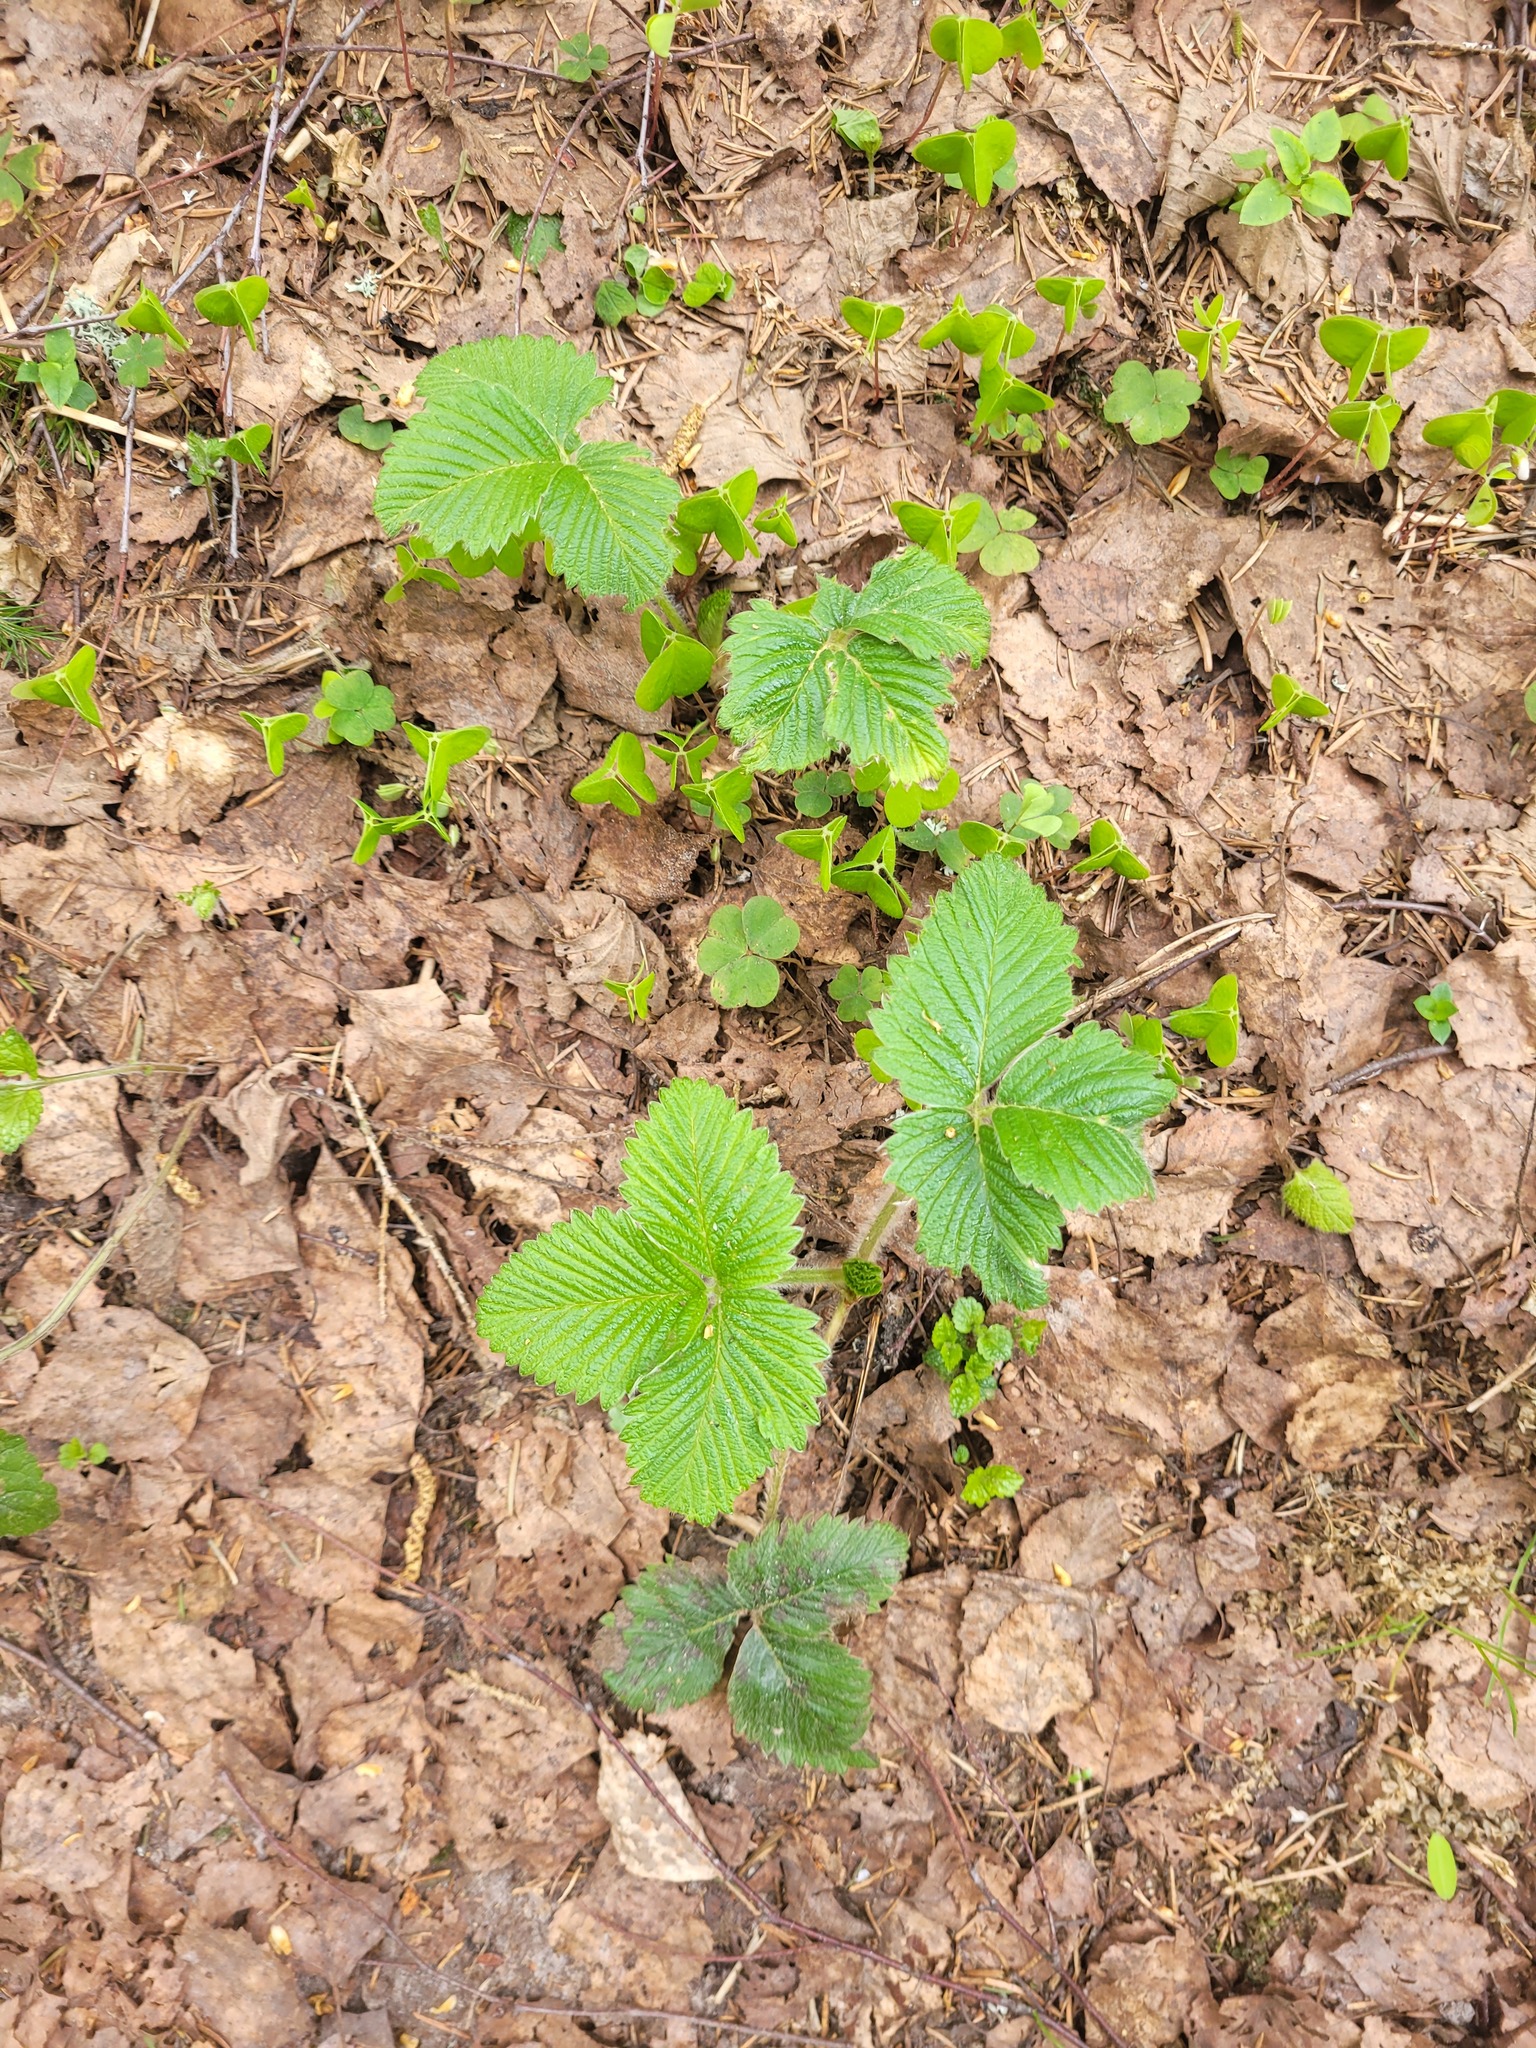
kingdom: Plantae
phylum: Tracheophyta
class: Magnoliopsida
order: Rosales
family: Rosaceae
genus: Fragaria
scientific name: Fragaria moschata
